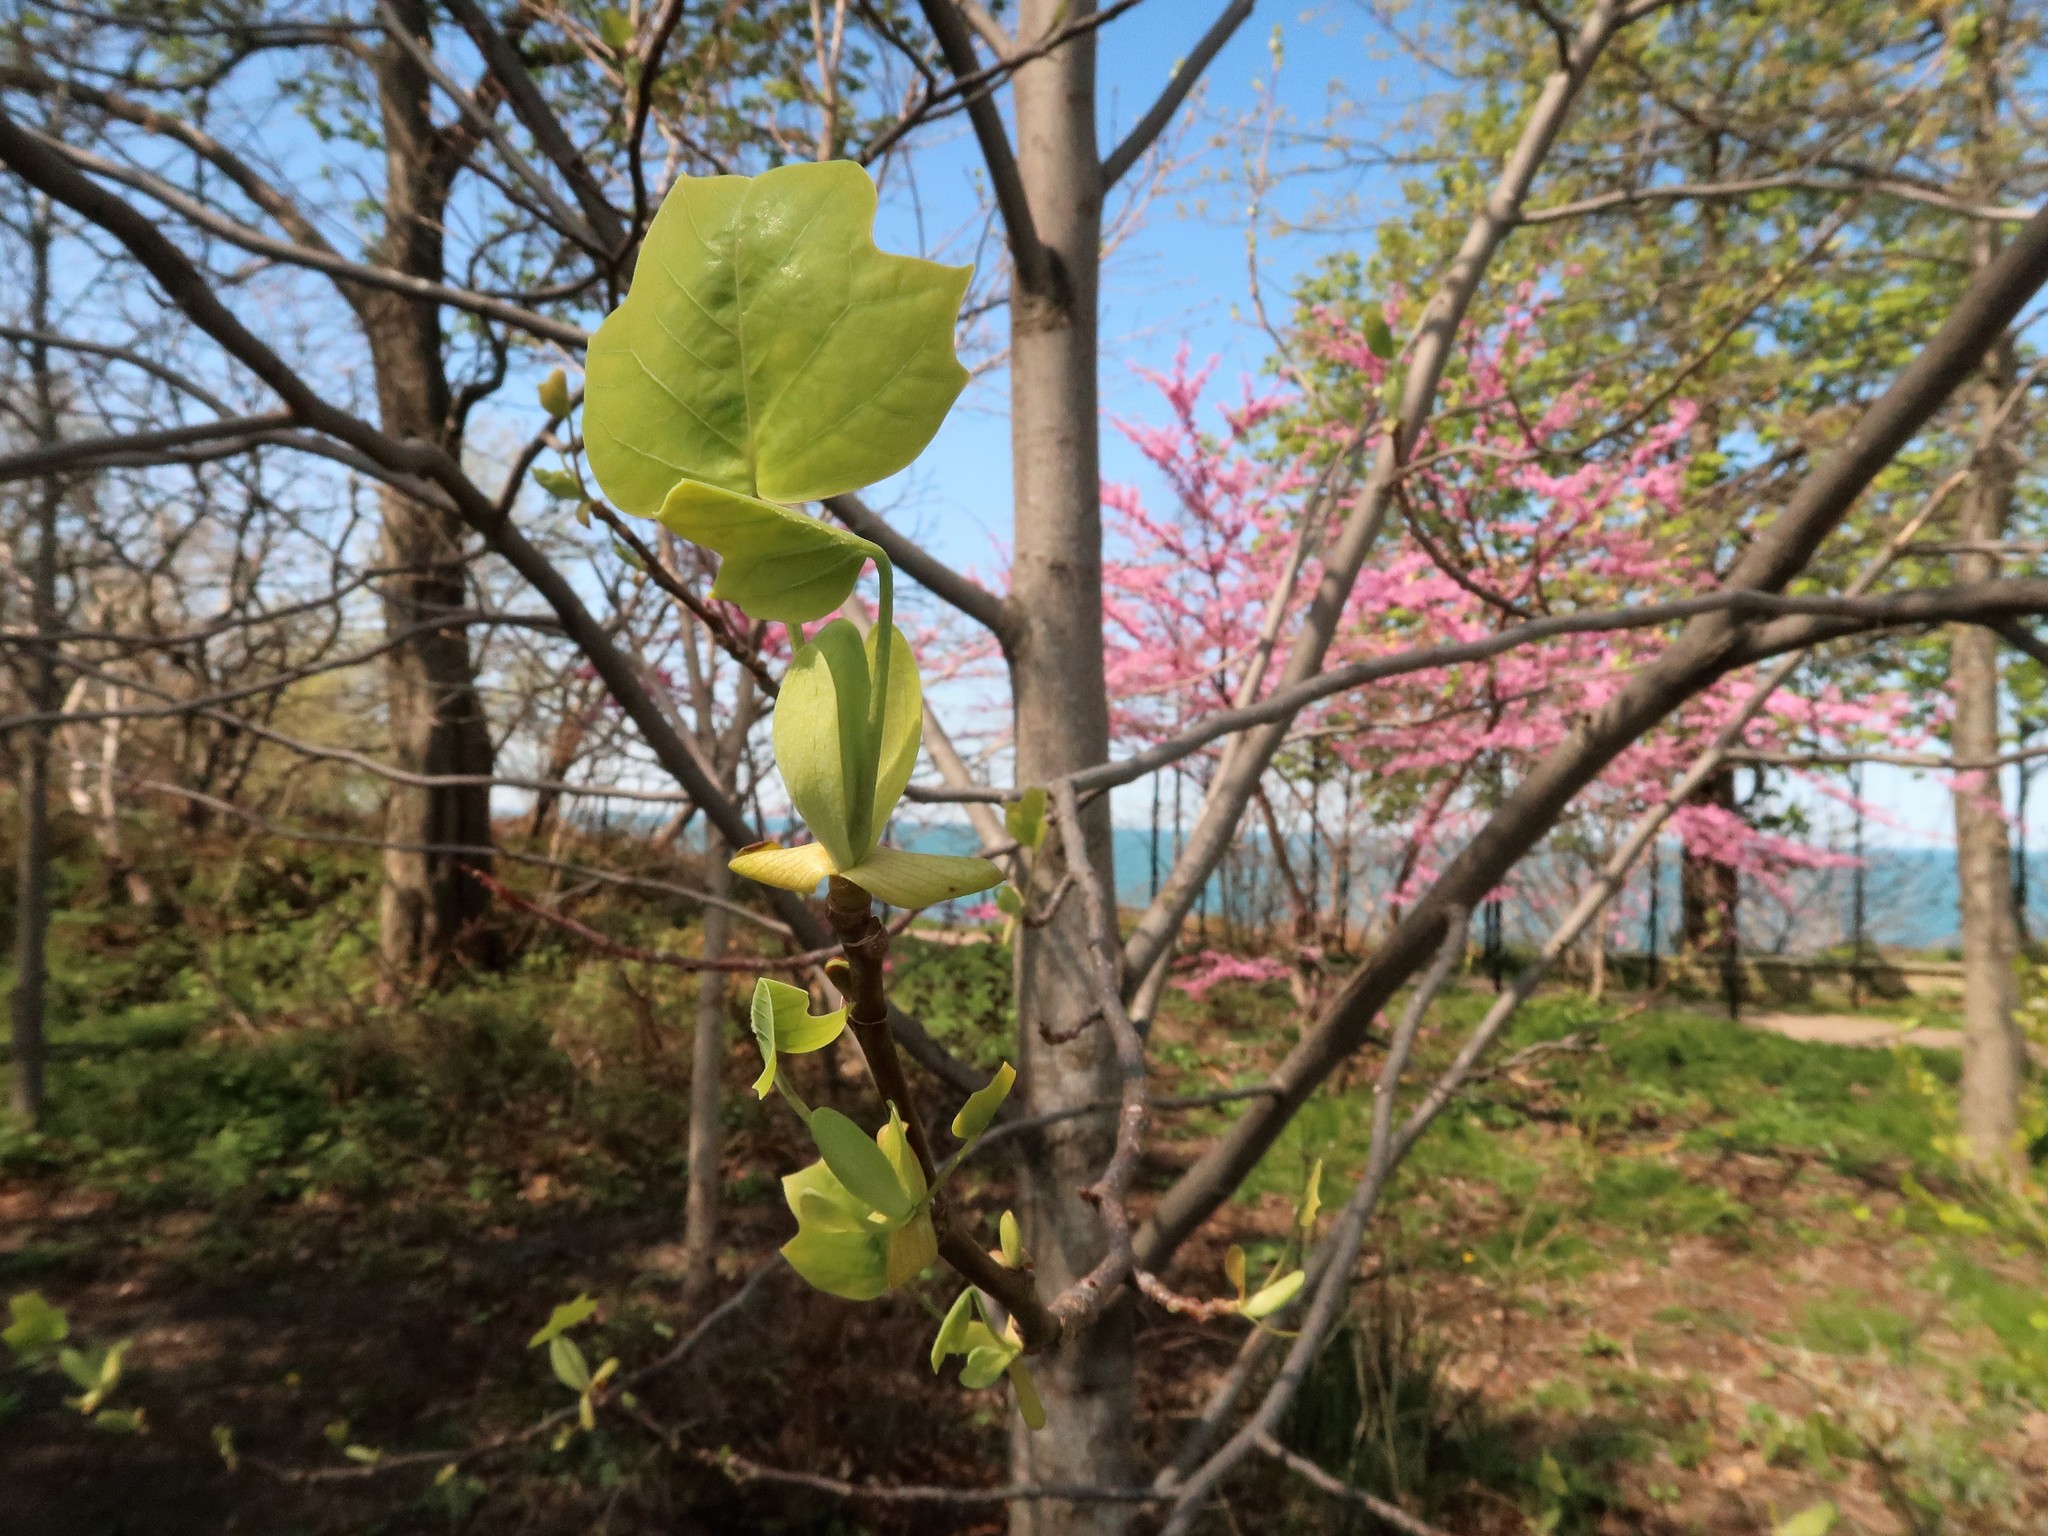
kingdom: Plantae
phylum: Tracheophyta
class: Magnoliopsida
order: Magnoliales
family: Magnoliaceae
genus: Liriodendron
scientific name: Liriodendron tulipifera
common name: Tulip tree
